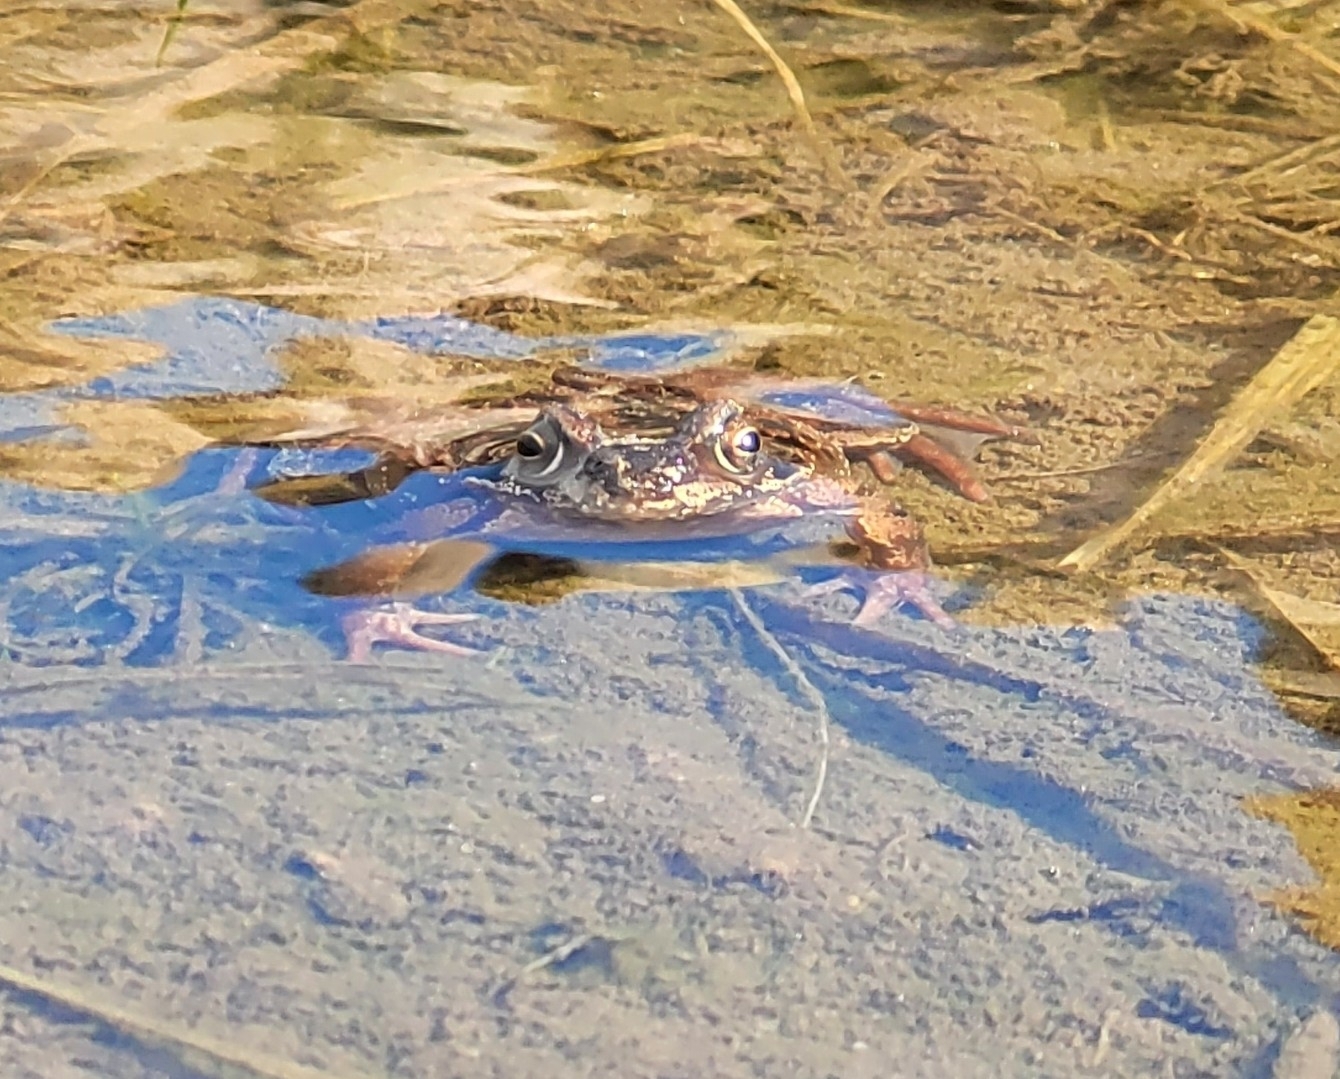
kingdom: Animalia
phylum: Chordata
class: Amphibia
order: Anura
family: Ranidae
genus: Rana
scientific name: Rana temporaria
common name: Common frog
